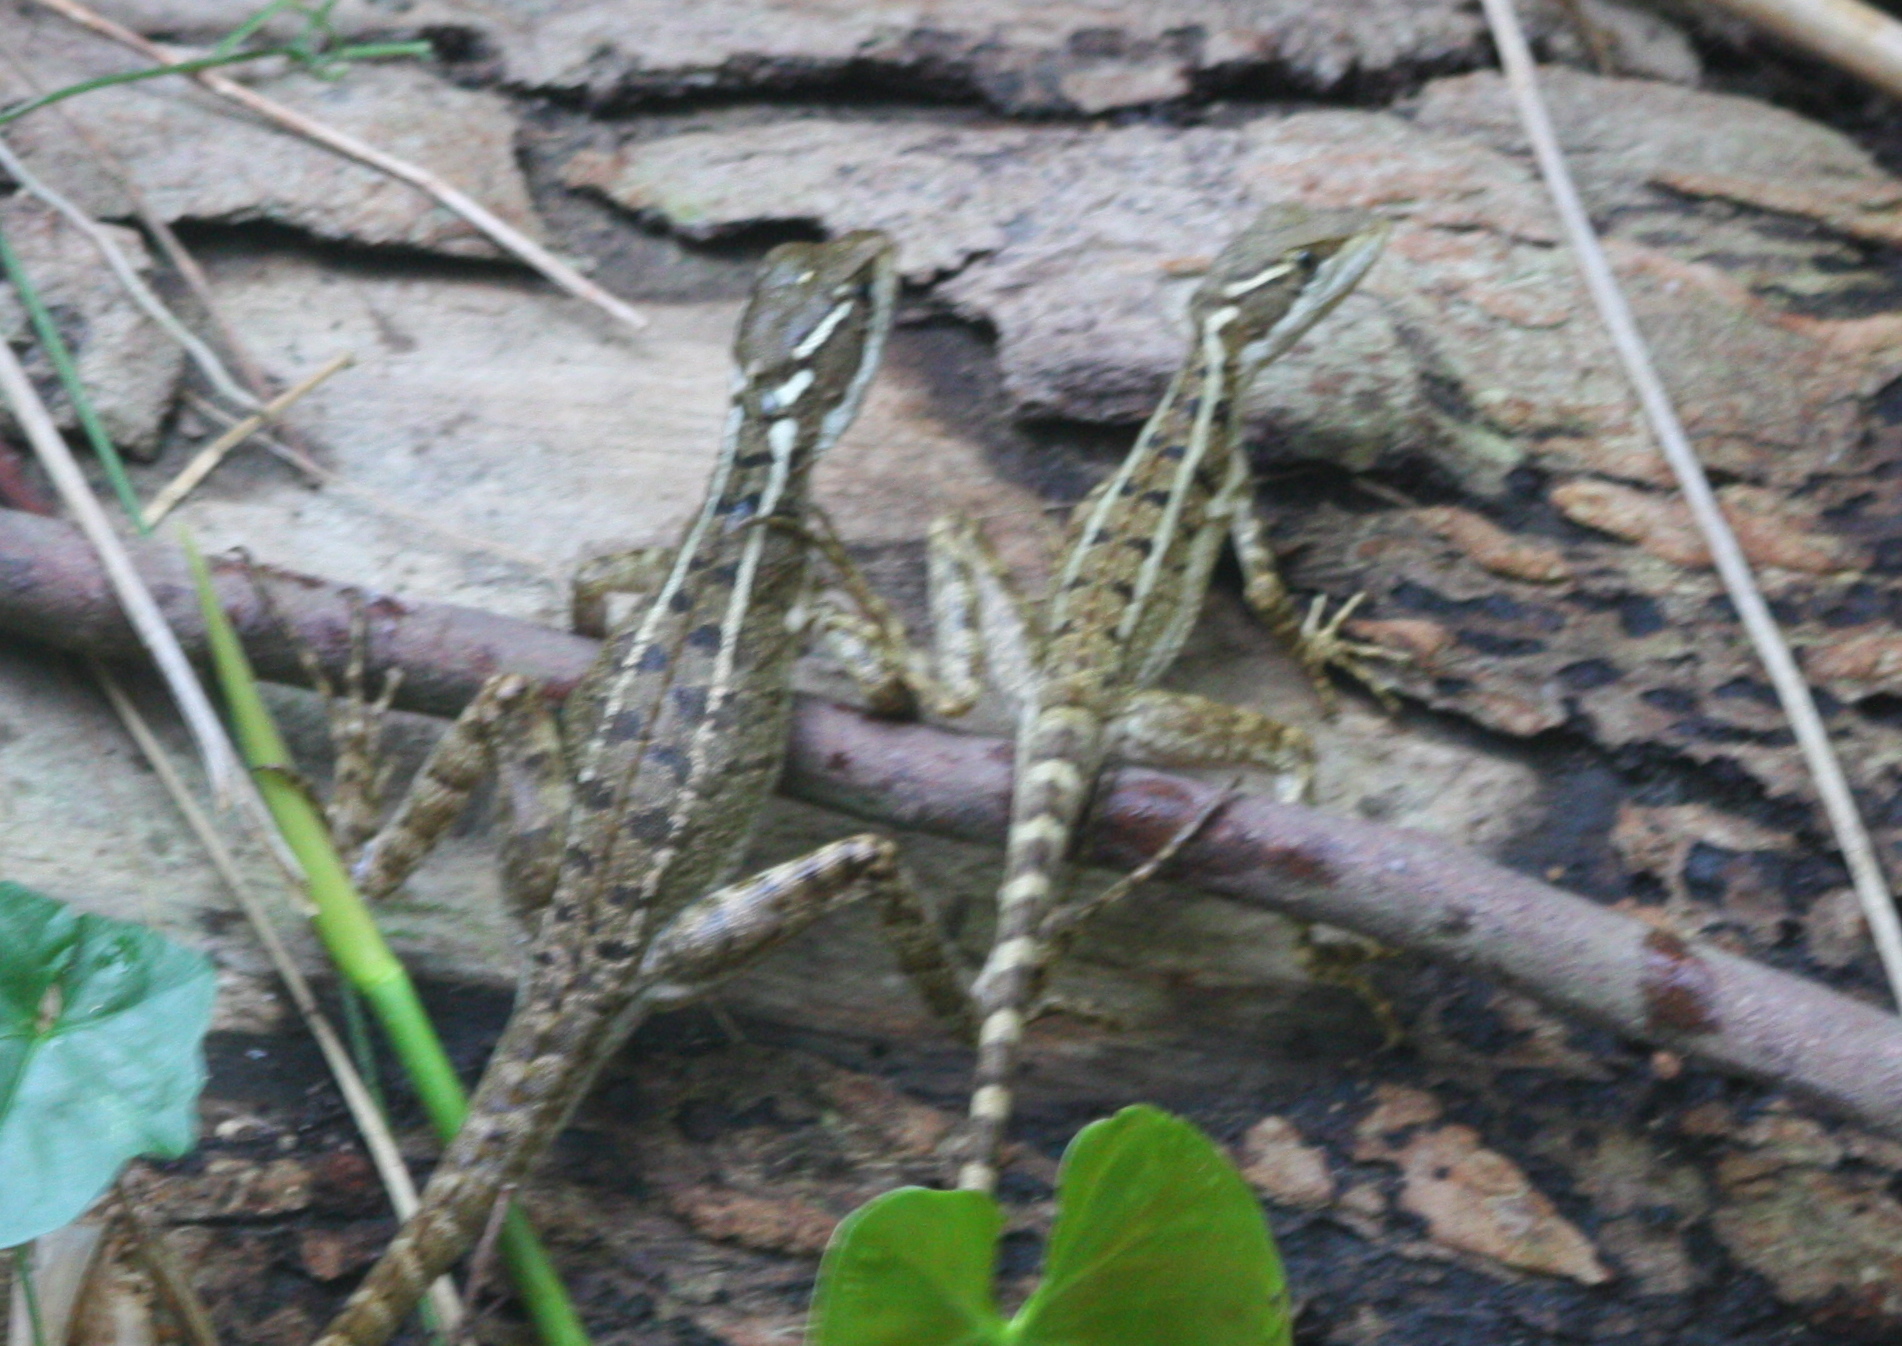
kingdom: Animalia
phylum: Chordata
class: Squamata
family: Corytophanidae
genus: Basiliscus
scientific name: Basiliscus basiliscus
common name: Common basilisk
